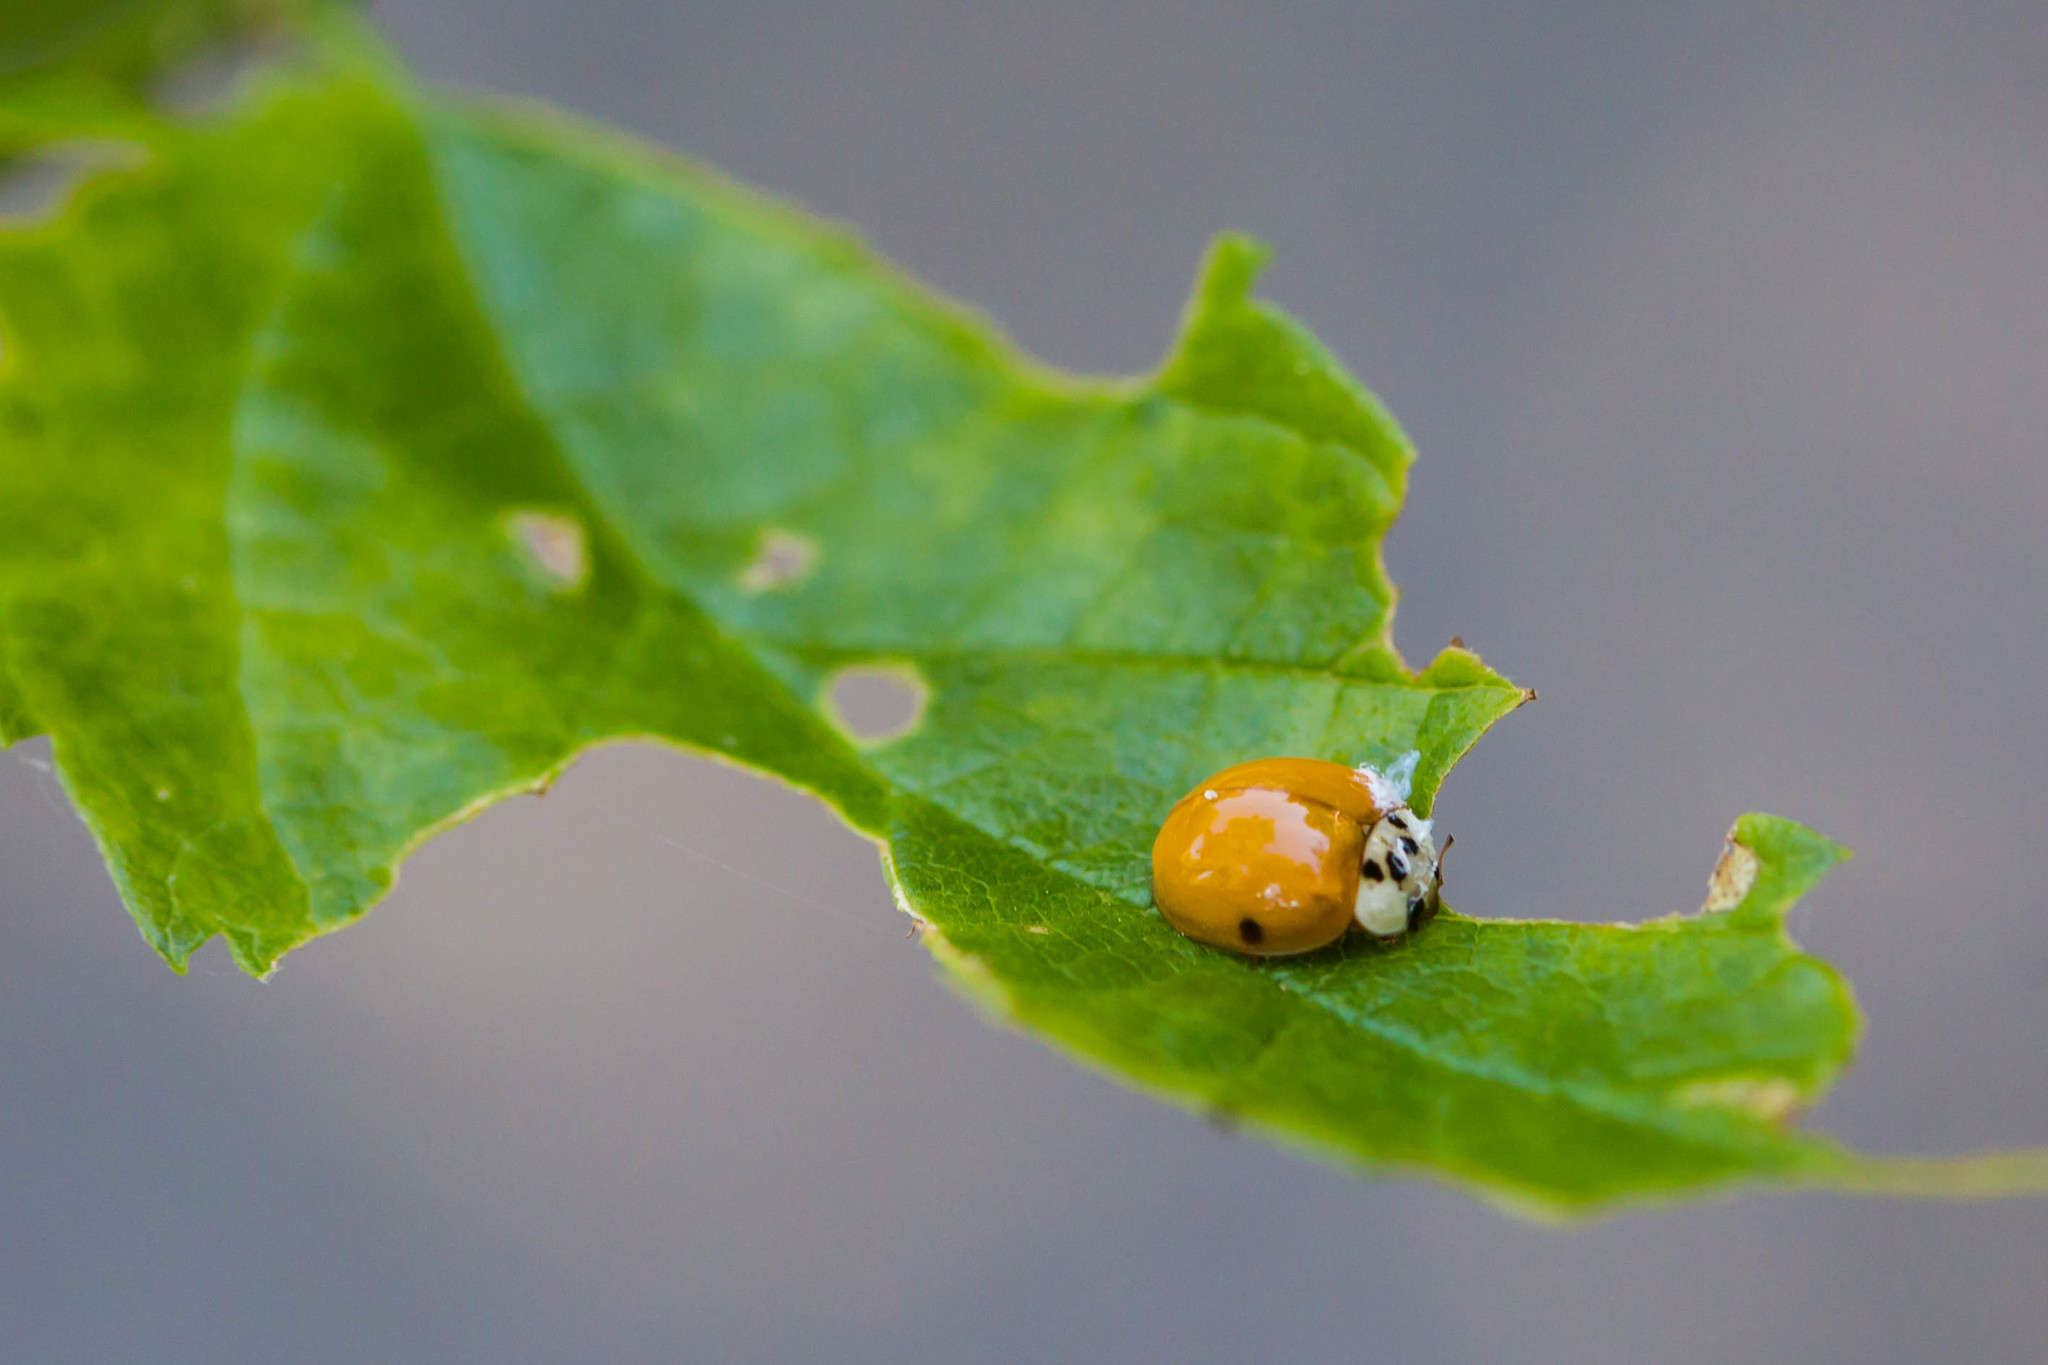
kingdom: Animalia
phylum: Arthropoda
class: Insecta
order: Coleoptera
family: Coccinellidae
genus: Harmonia
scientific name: Harmonia axyridis
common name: Harlequin ladybird
